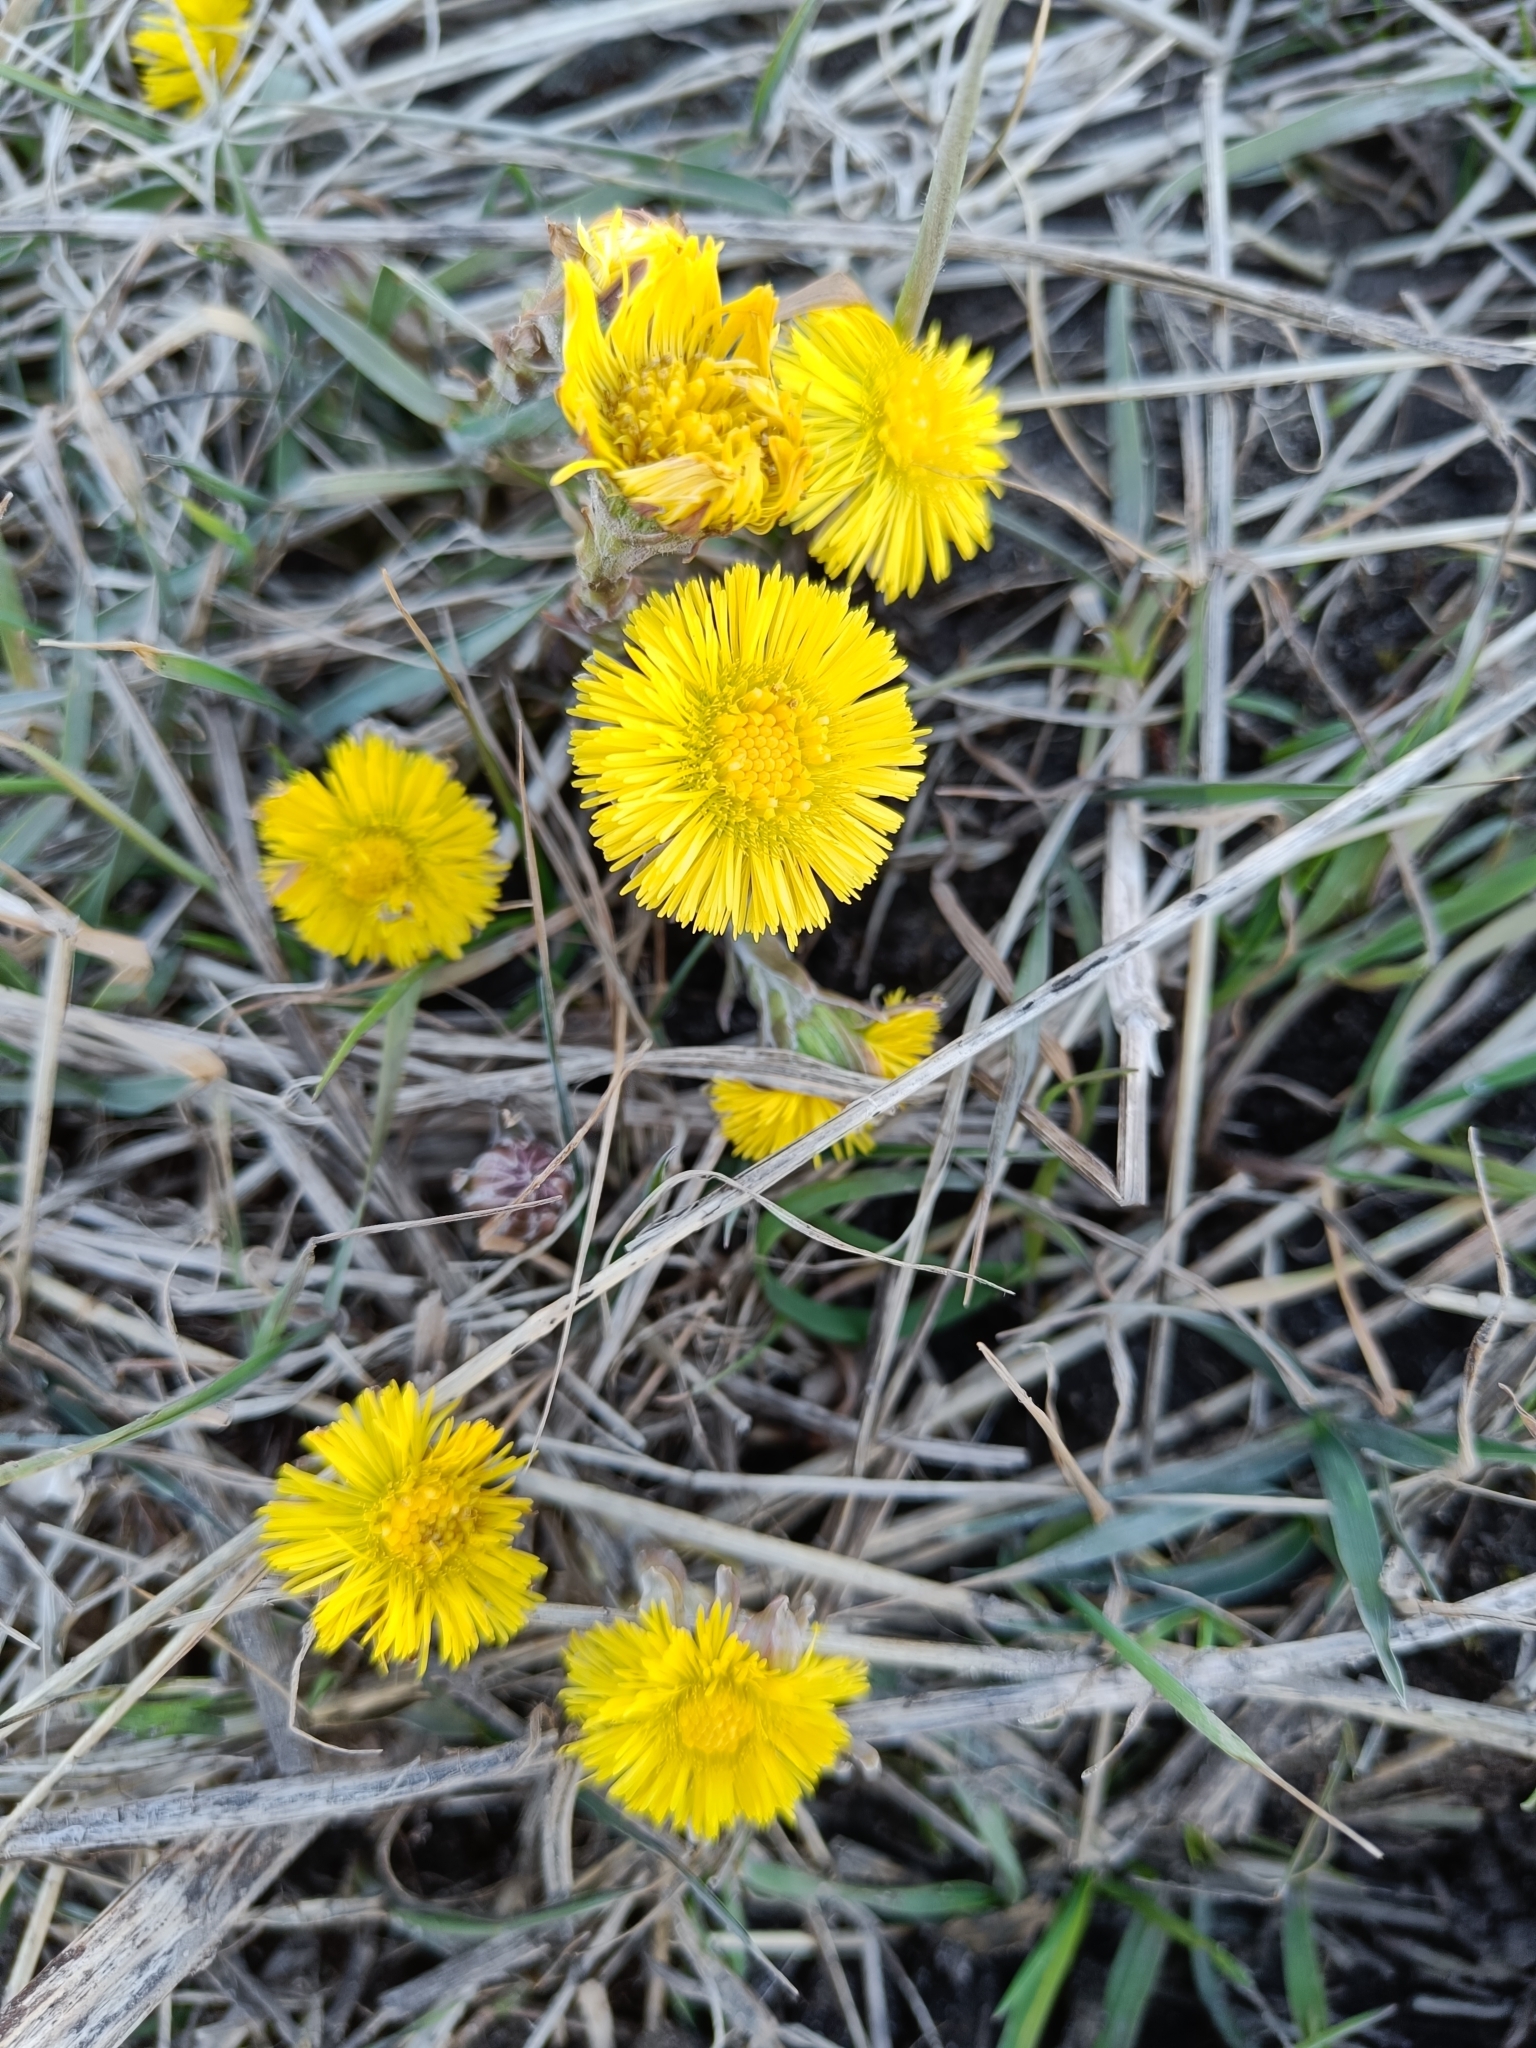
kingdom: Plantae
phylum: Tracheophyta
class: Magnoliopsida
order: Asterales
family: Asteraceae
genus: Tussilago
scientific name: Tussilago farfara
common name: Coltsfoot
